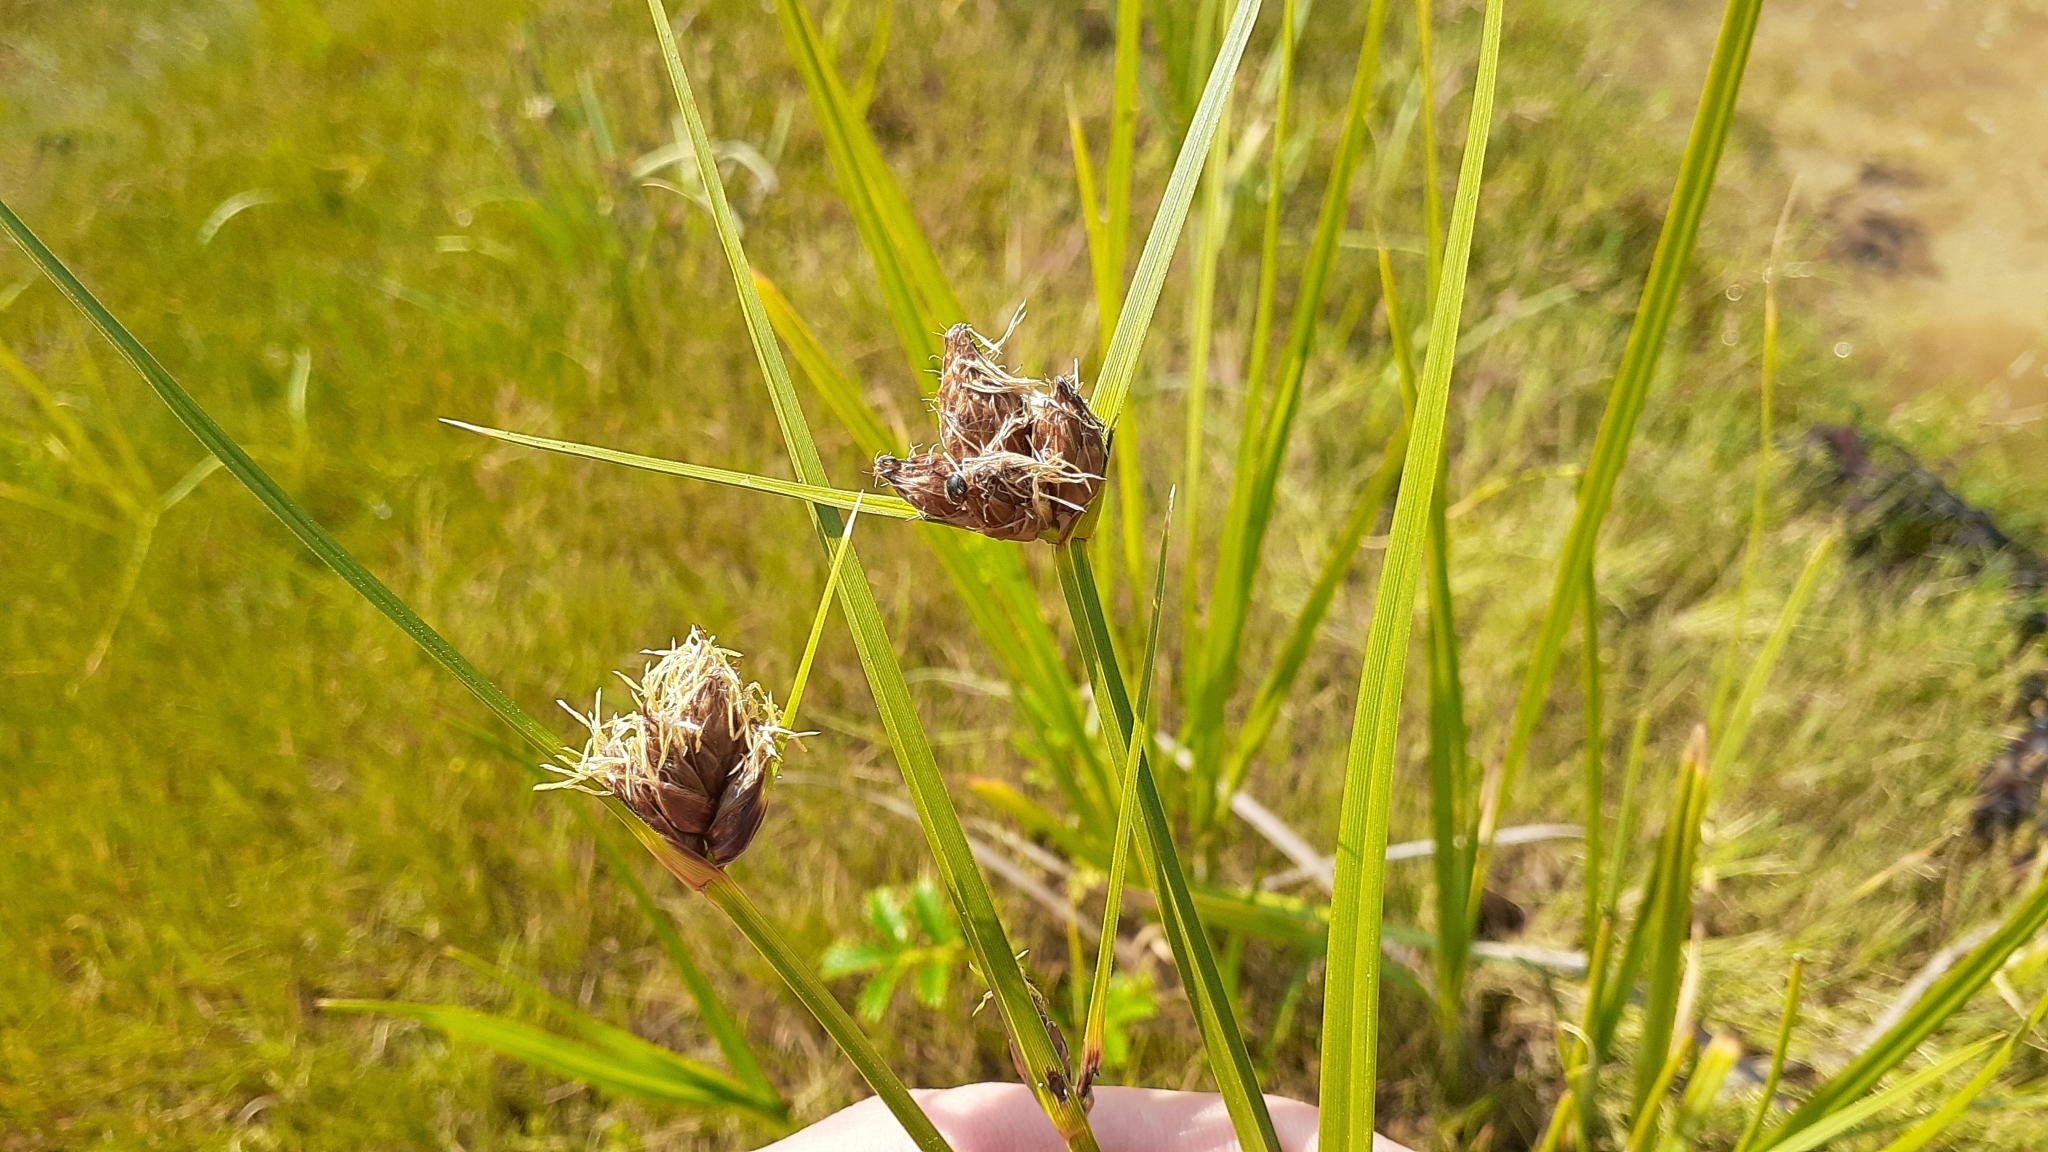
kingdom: Plantae
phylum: Tracheophyta
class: Liliopsida
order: Poales
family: Cyperaceae
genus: Bolboschoenus
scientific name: Bolboschoenus maritimus
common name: Sea club-rush
